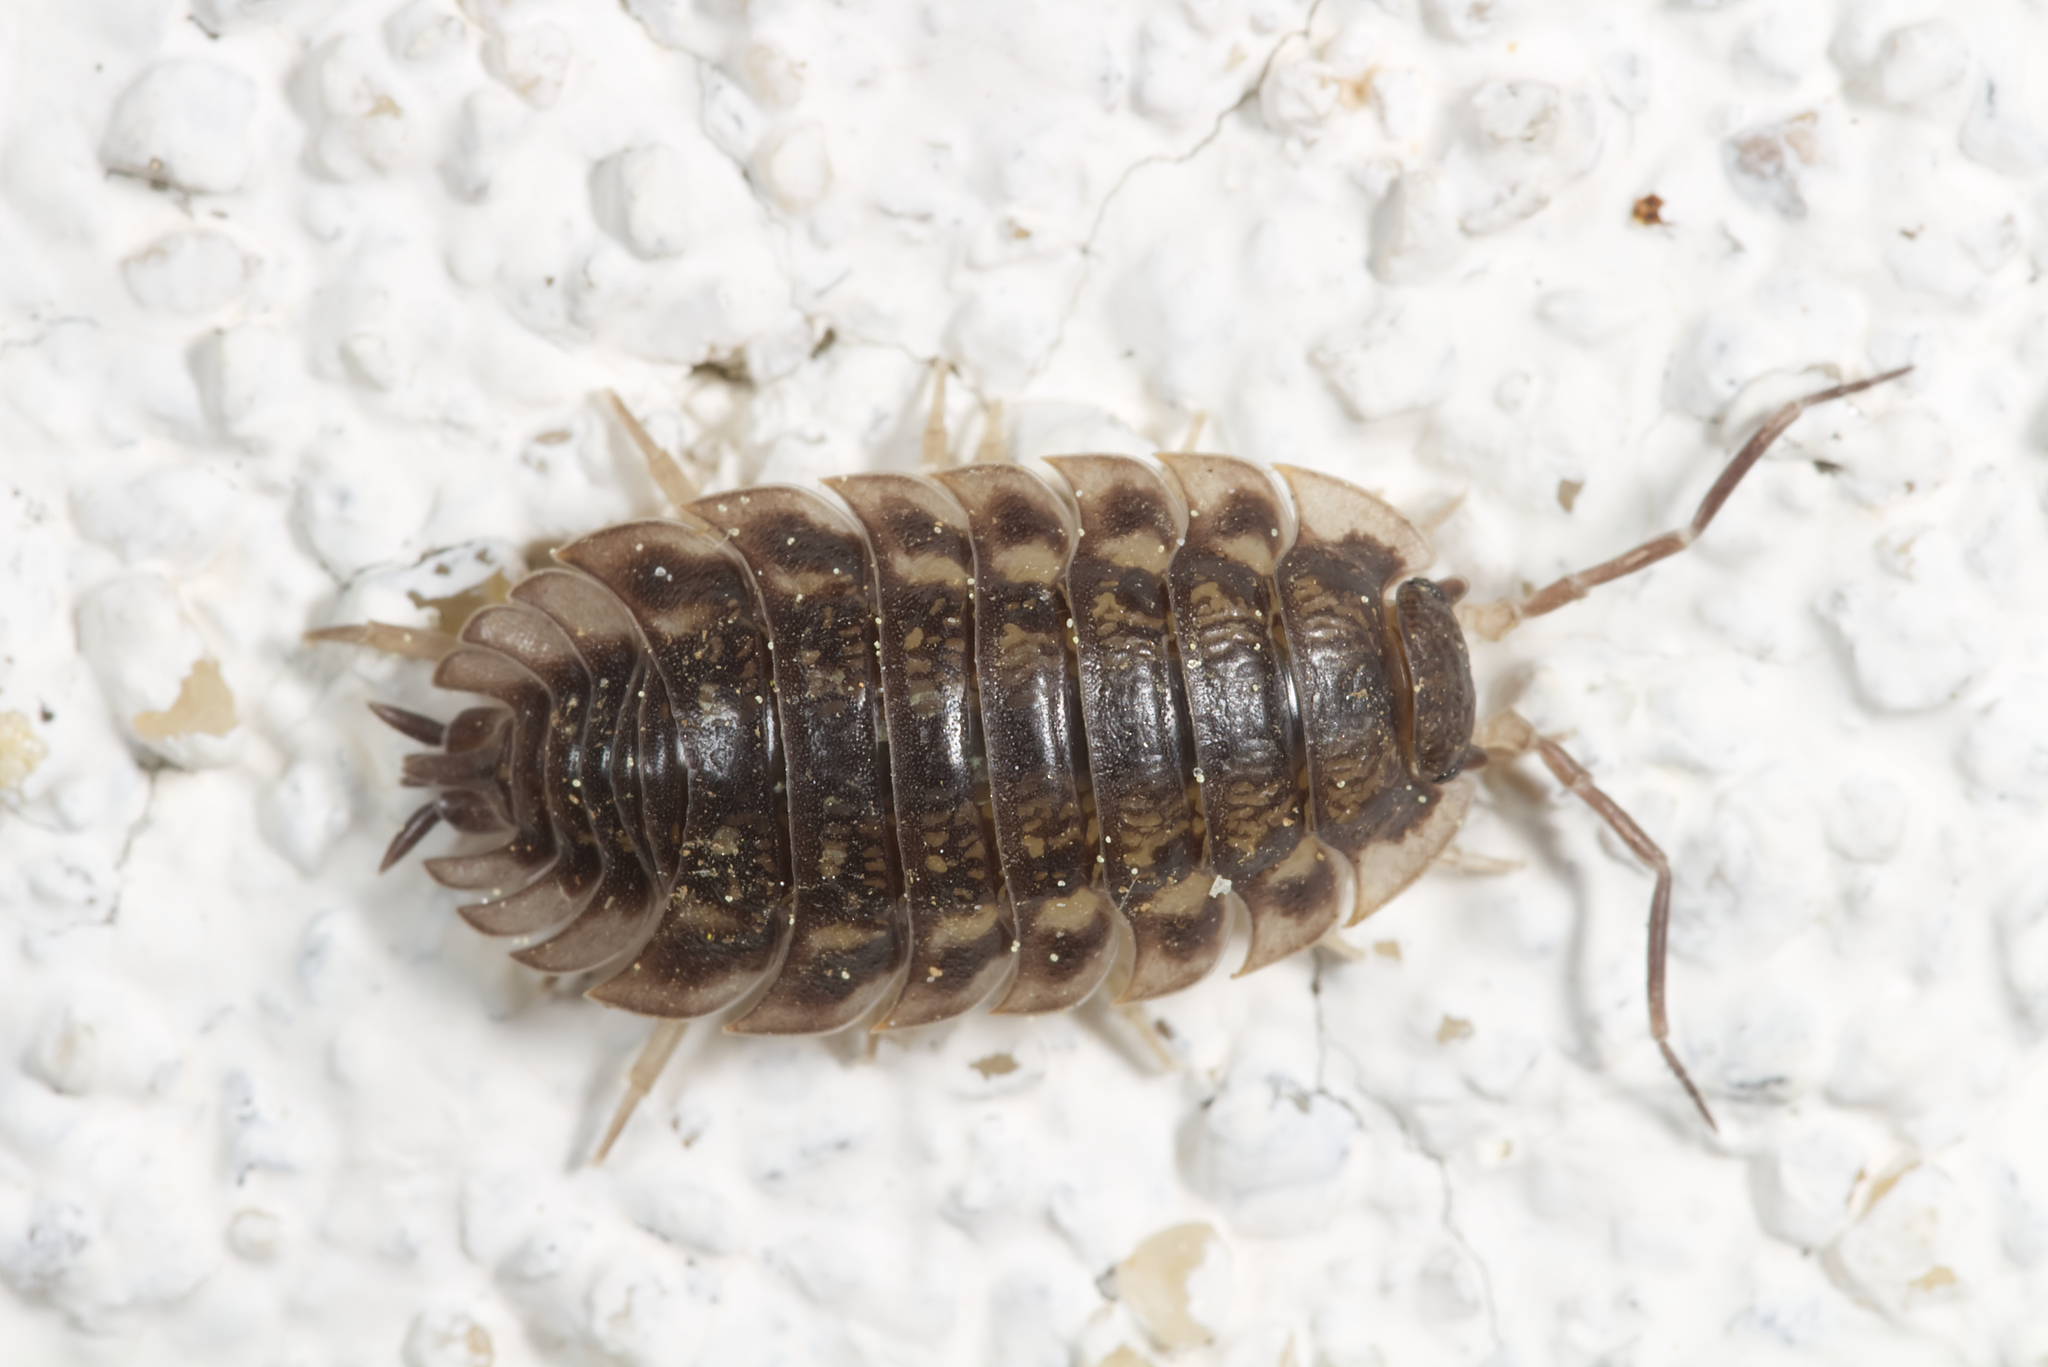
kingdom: Animalia
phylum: Arthropoda
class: Malacostraca
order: Isopoda
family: Oniscidae
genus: Oniscus
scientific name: Oniscus asellus
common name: Common shiny woodlouse
